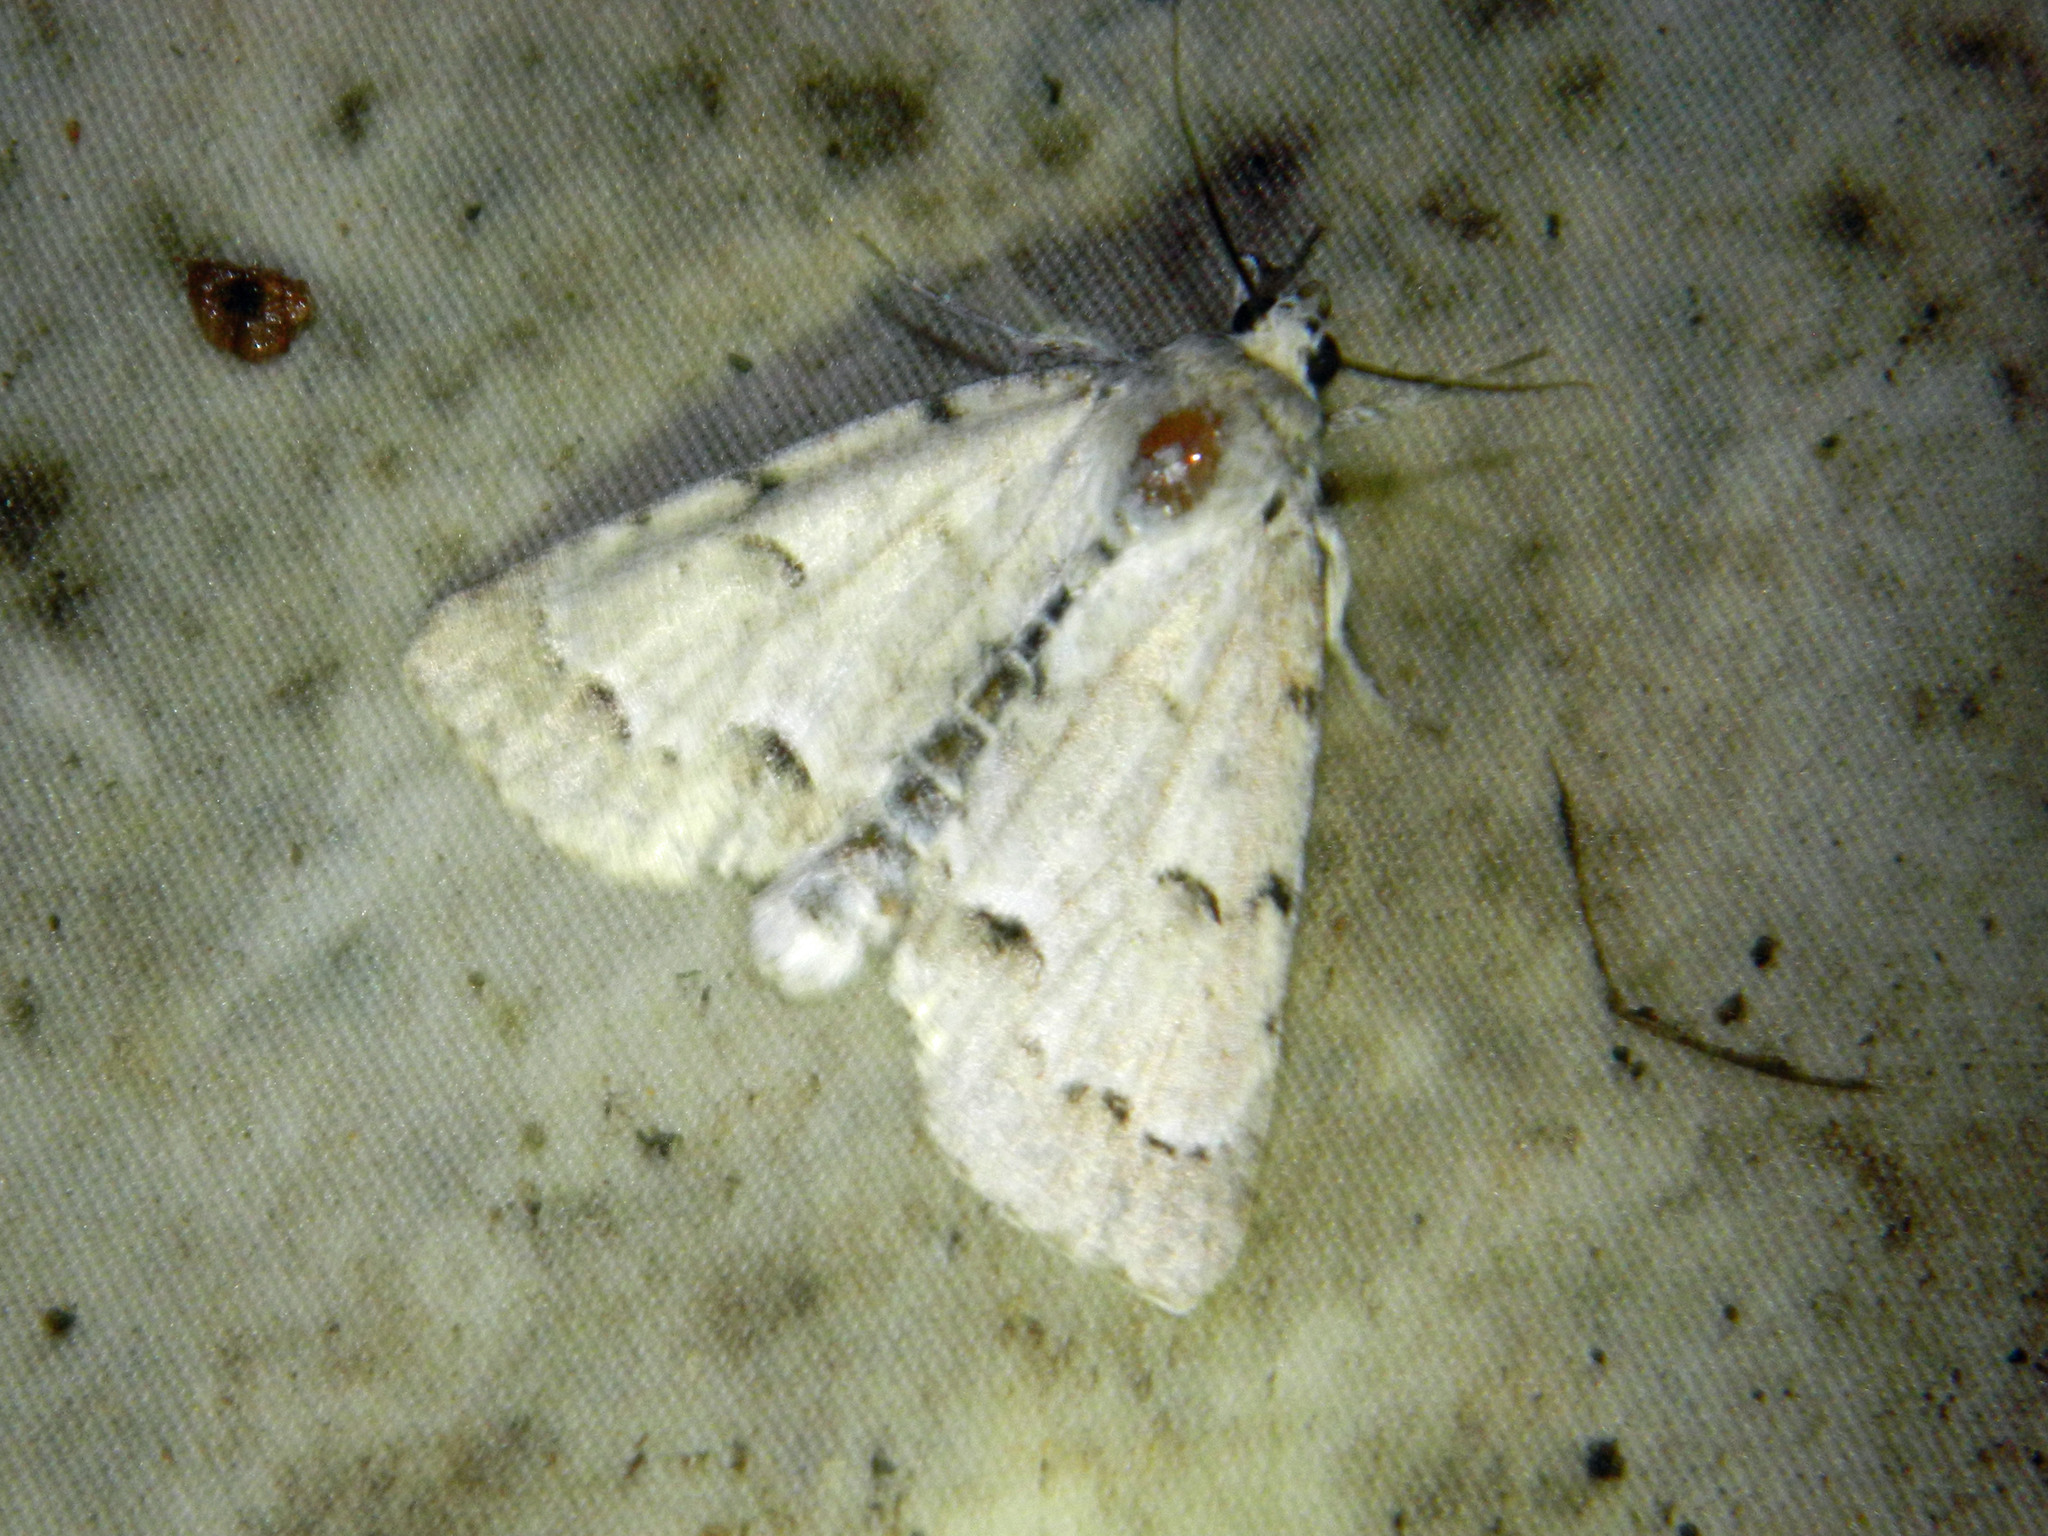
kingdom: Animalia
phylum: Arthropoda
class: Insecta
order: Lepidoptera
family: Noctuidae
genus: Acronicta
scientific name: Acronicta innotata
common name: Unmarked dagger
